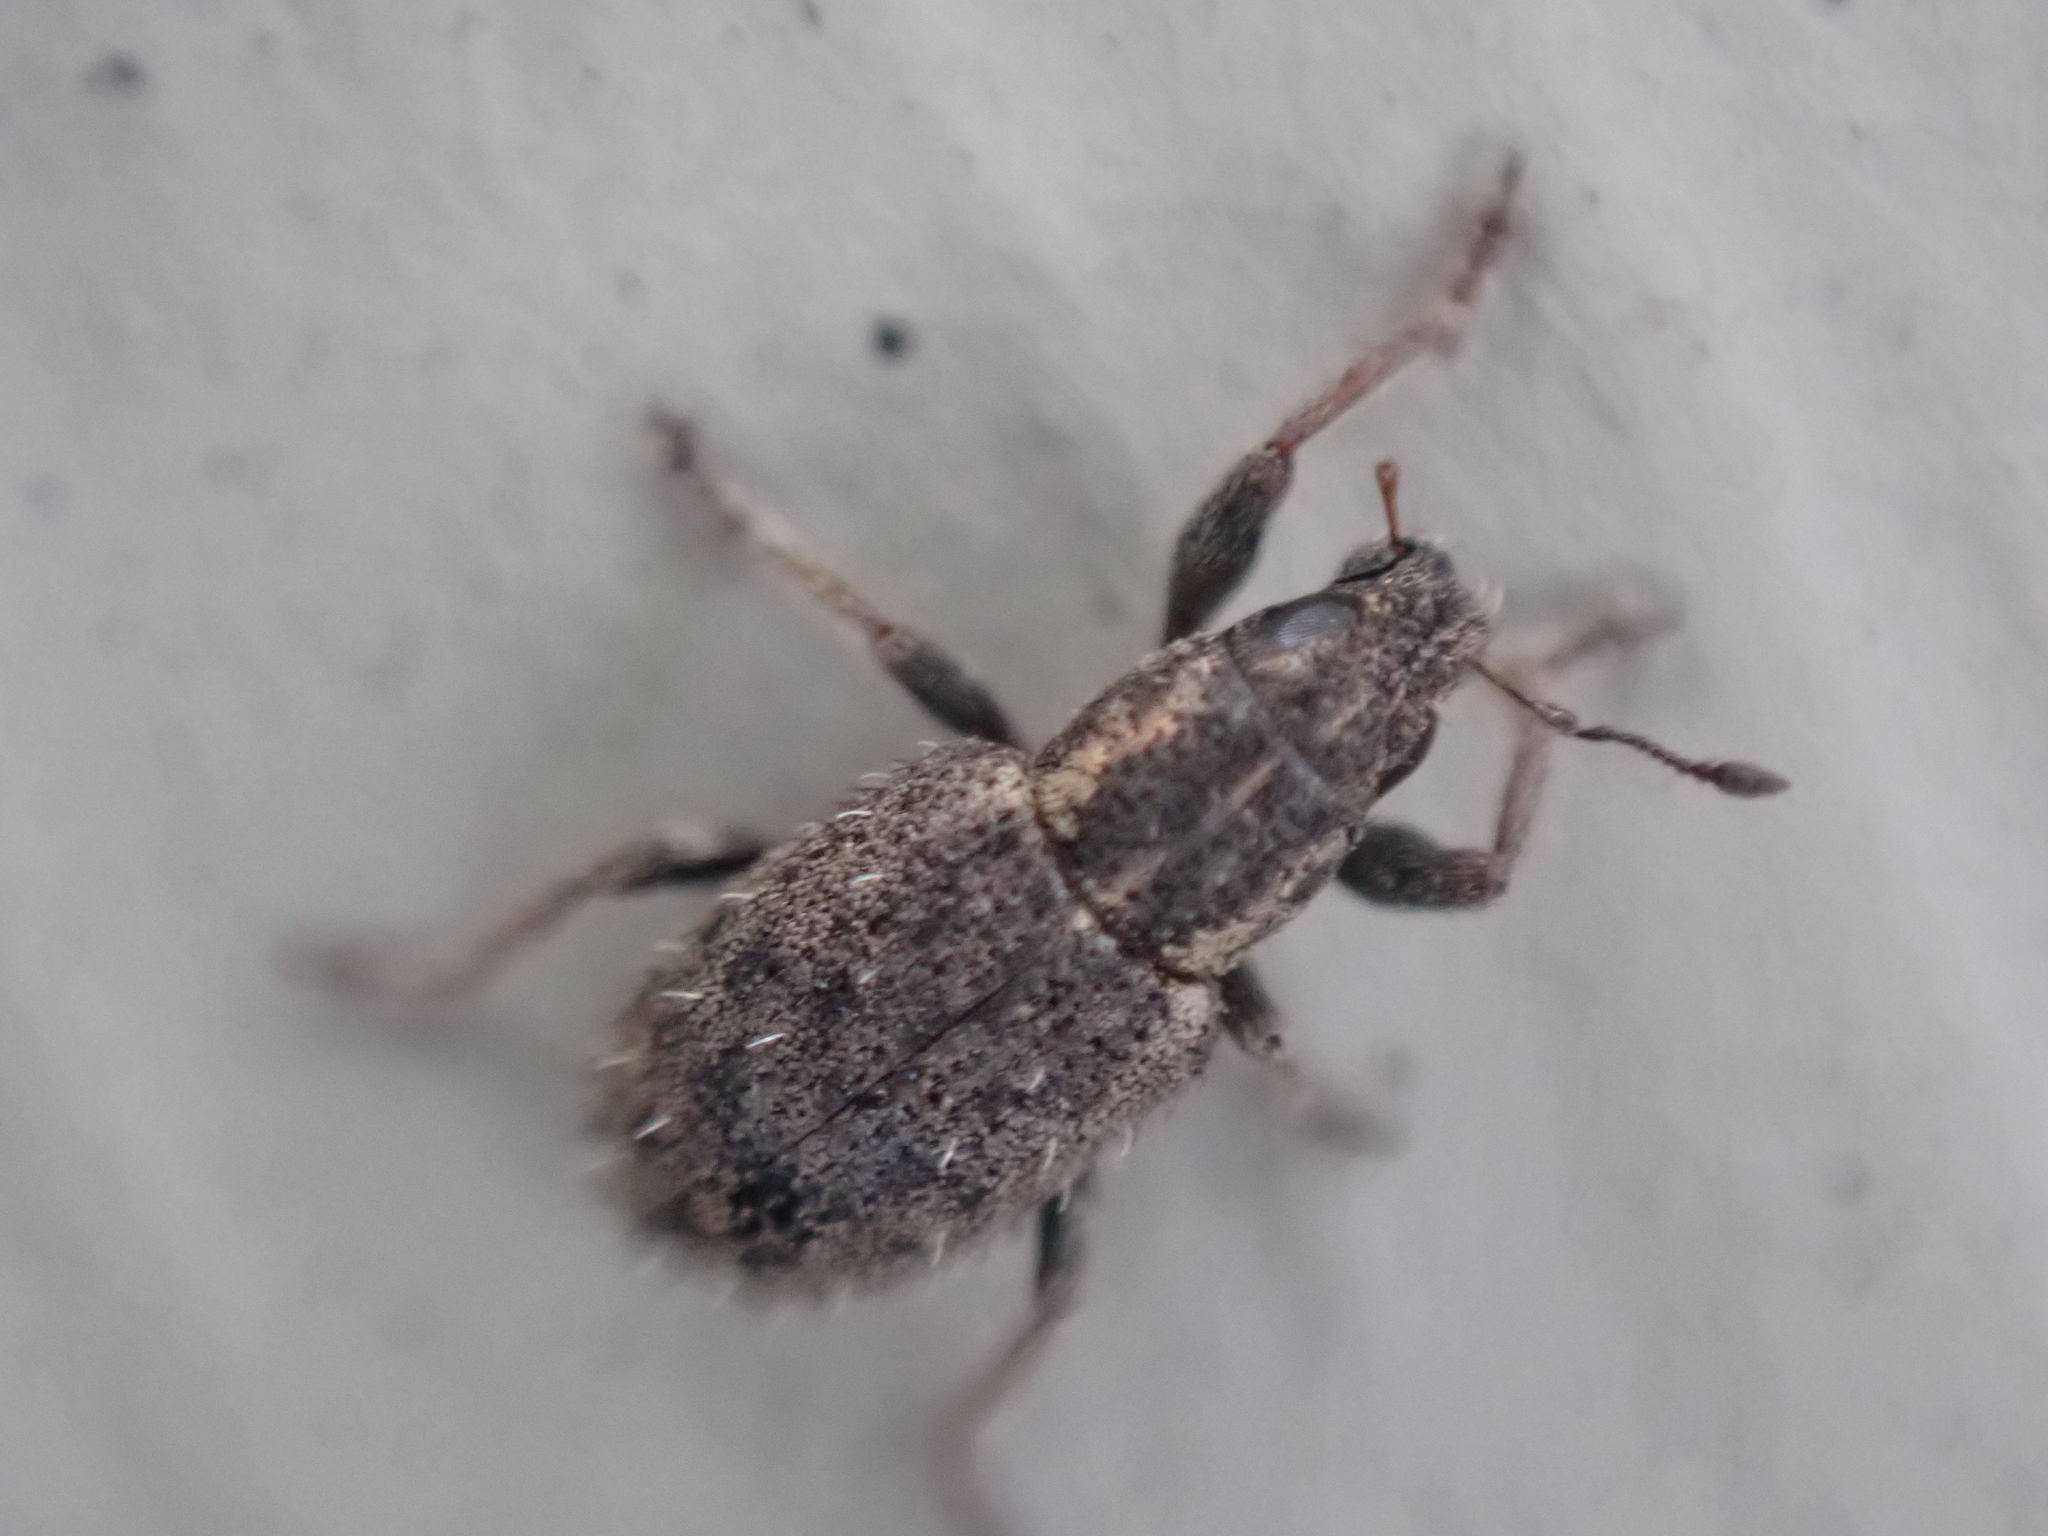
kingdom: Animalia
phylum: Arthropoda
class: Insecta
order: Coleoptera
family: Curculionidae
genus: Sitona
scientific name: Sitona hispidulus
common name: Clover weevil
